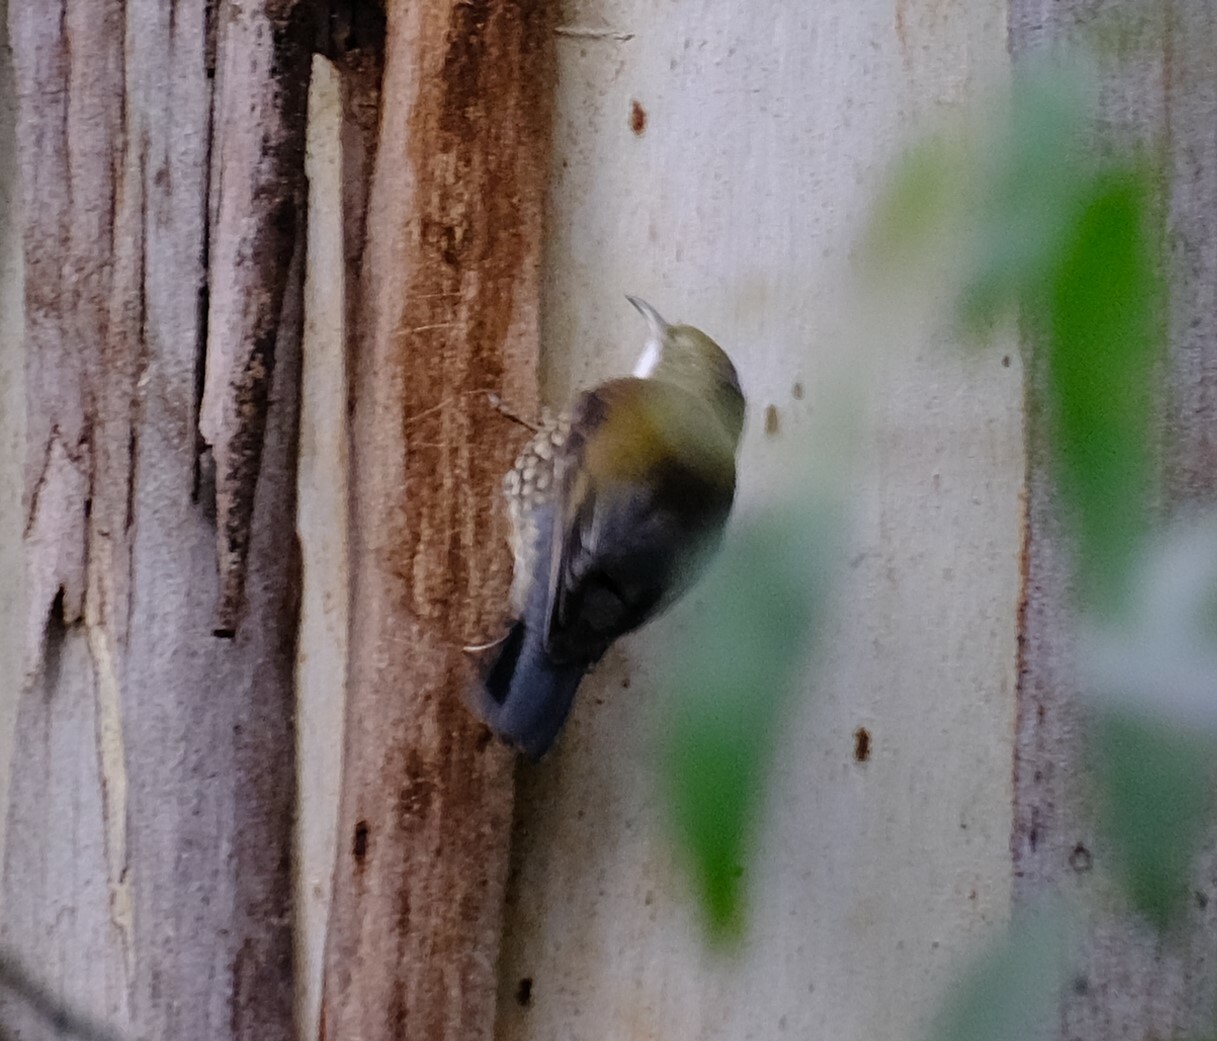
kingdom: Animalia
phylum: Chordata
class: Aves
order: Passeriformes
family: Climacteridae
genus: Cormobates
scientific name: Cormobates leucophaea
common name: White-throated treecreeper
